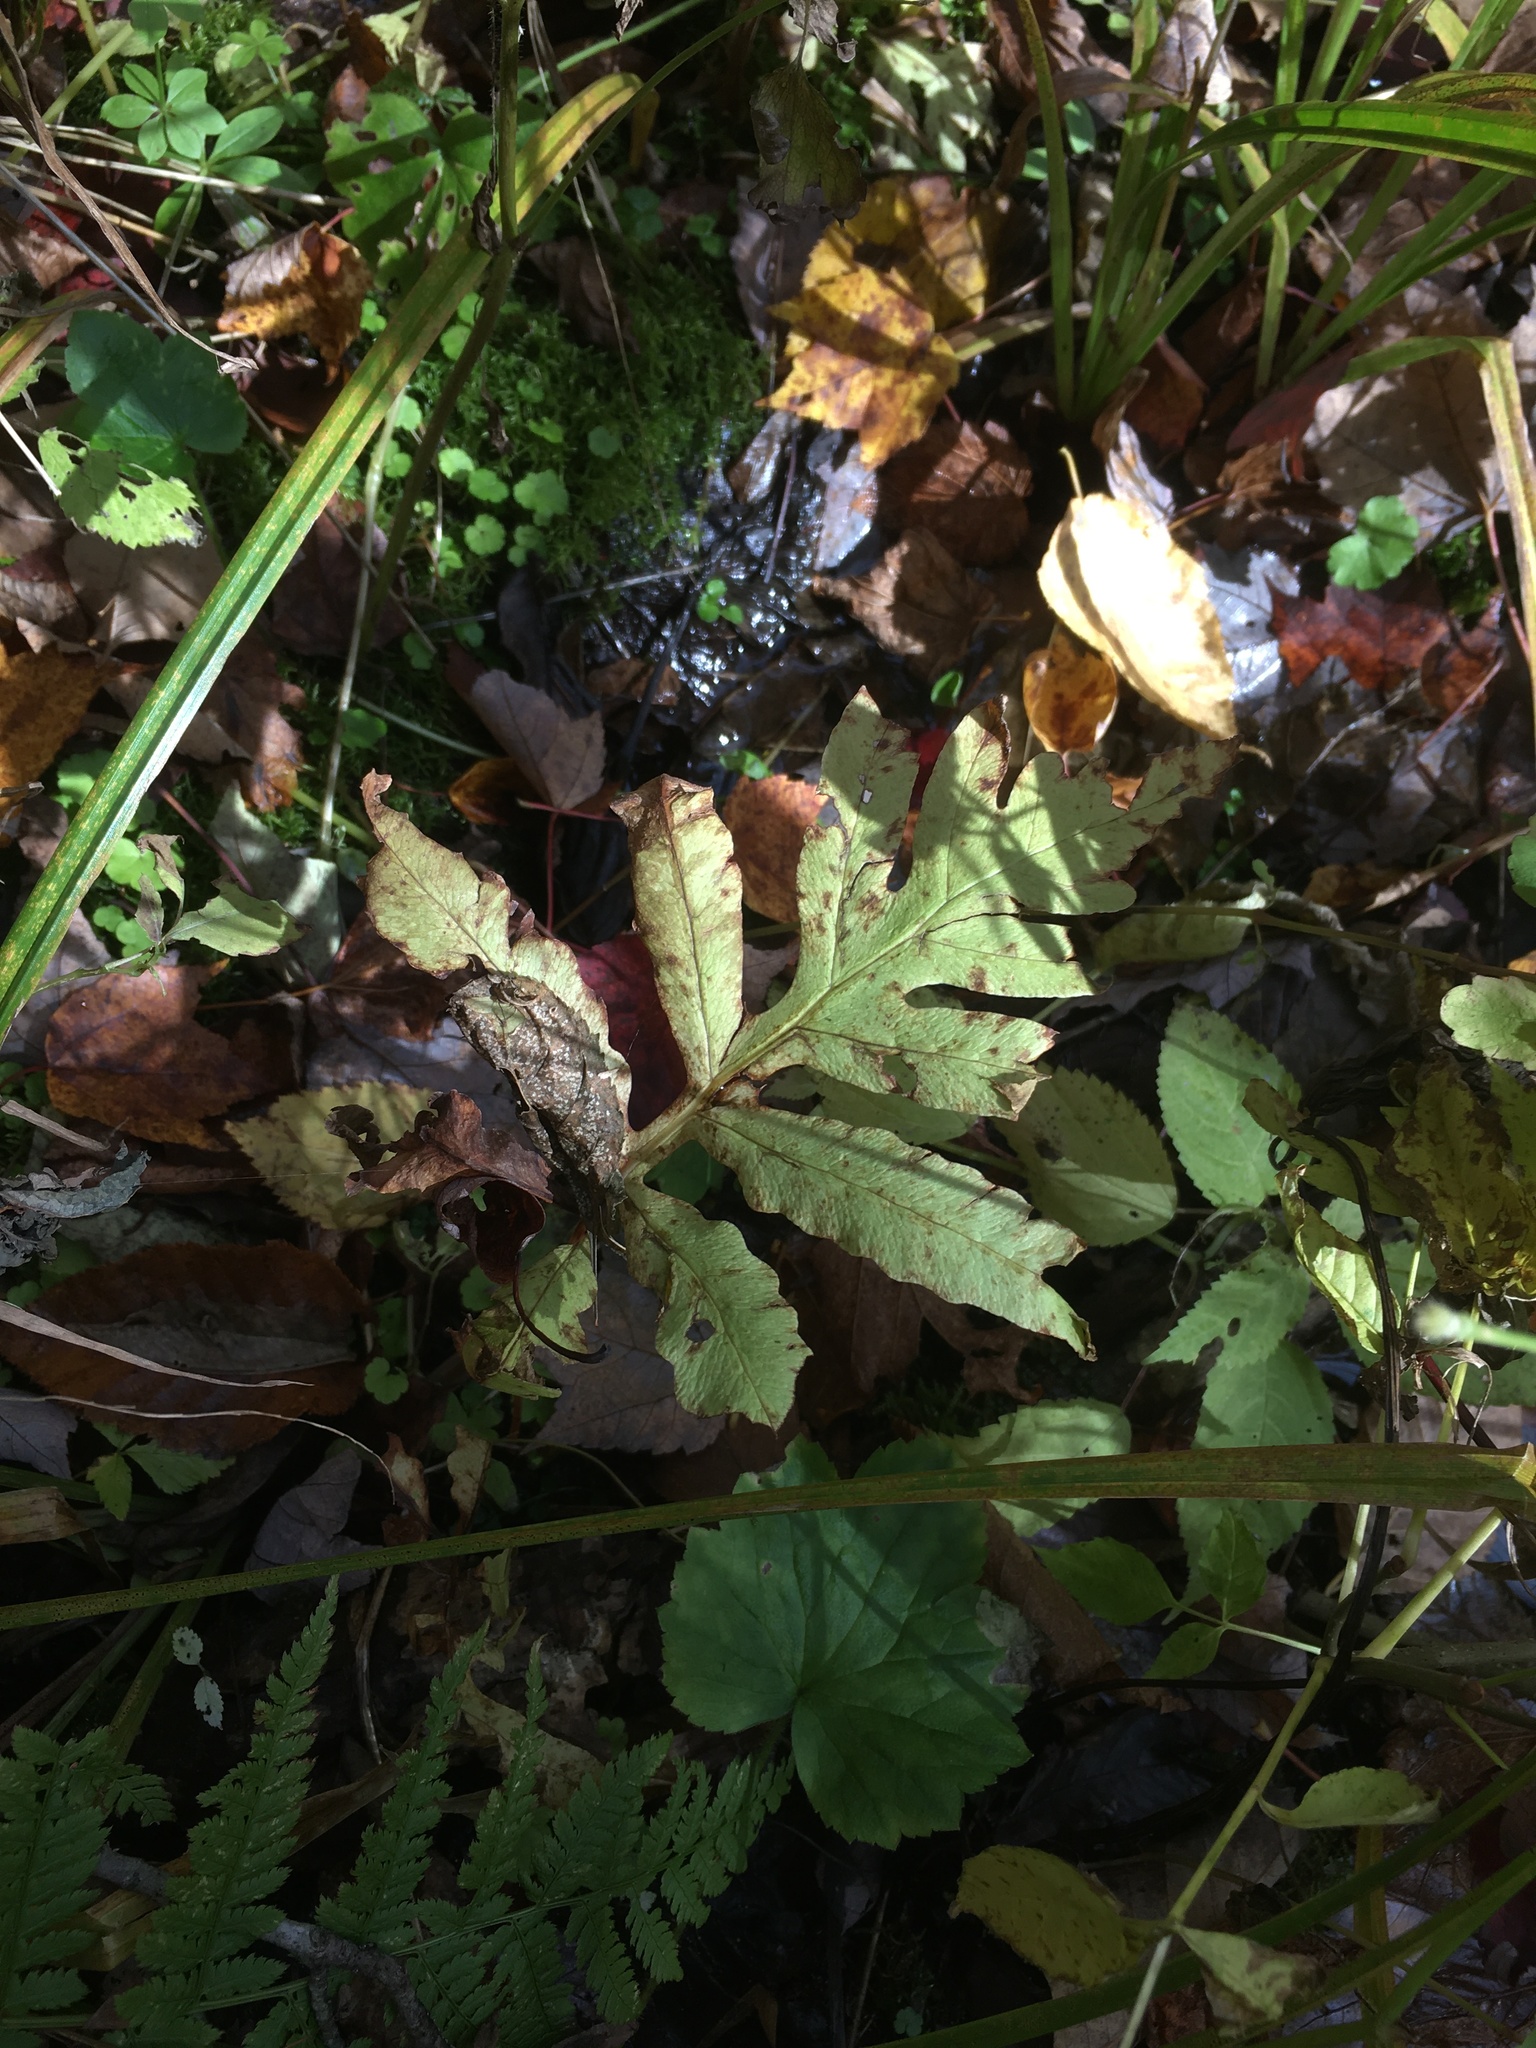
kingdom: Plantae
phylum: Tracheophyta
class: Polypodiopsida
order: Polypodiales
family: Onocleaceae
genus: Onoclea
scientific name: Onoclea sensibilis
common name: Sensitive fern
